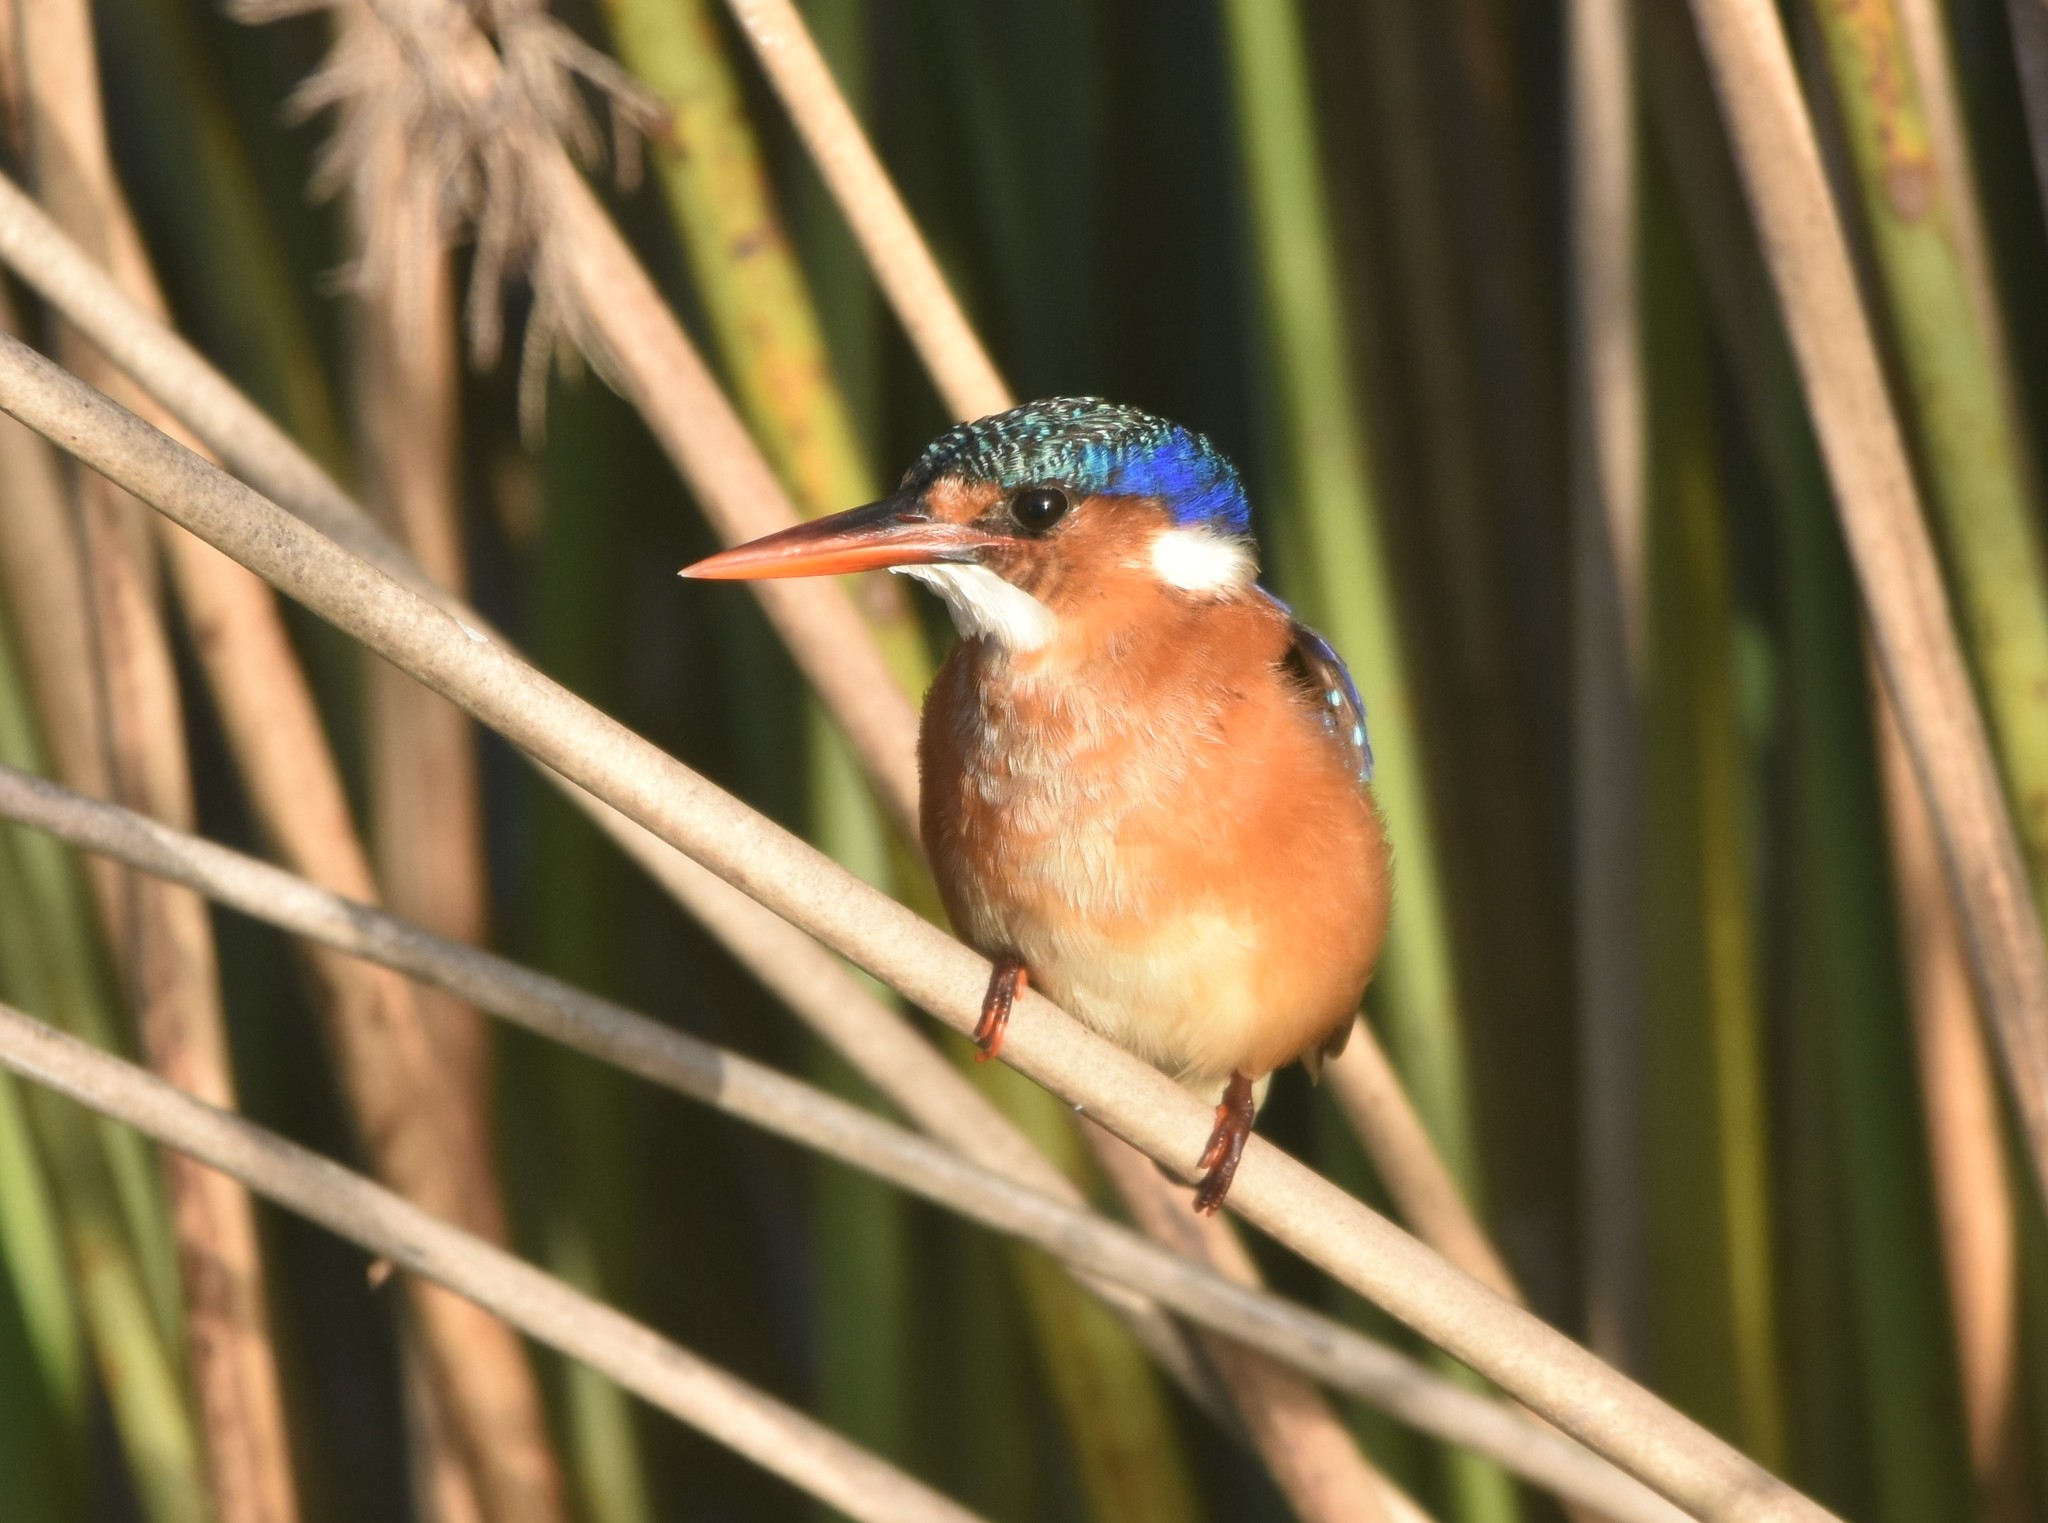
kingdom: Animalia
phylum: Chordata
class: Aves
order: Coraciiformes
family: Alcedinidae
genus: Corythornis
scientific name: Corythornis cristatus
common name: Malachite kingfisher
